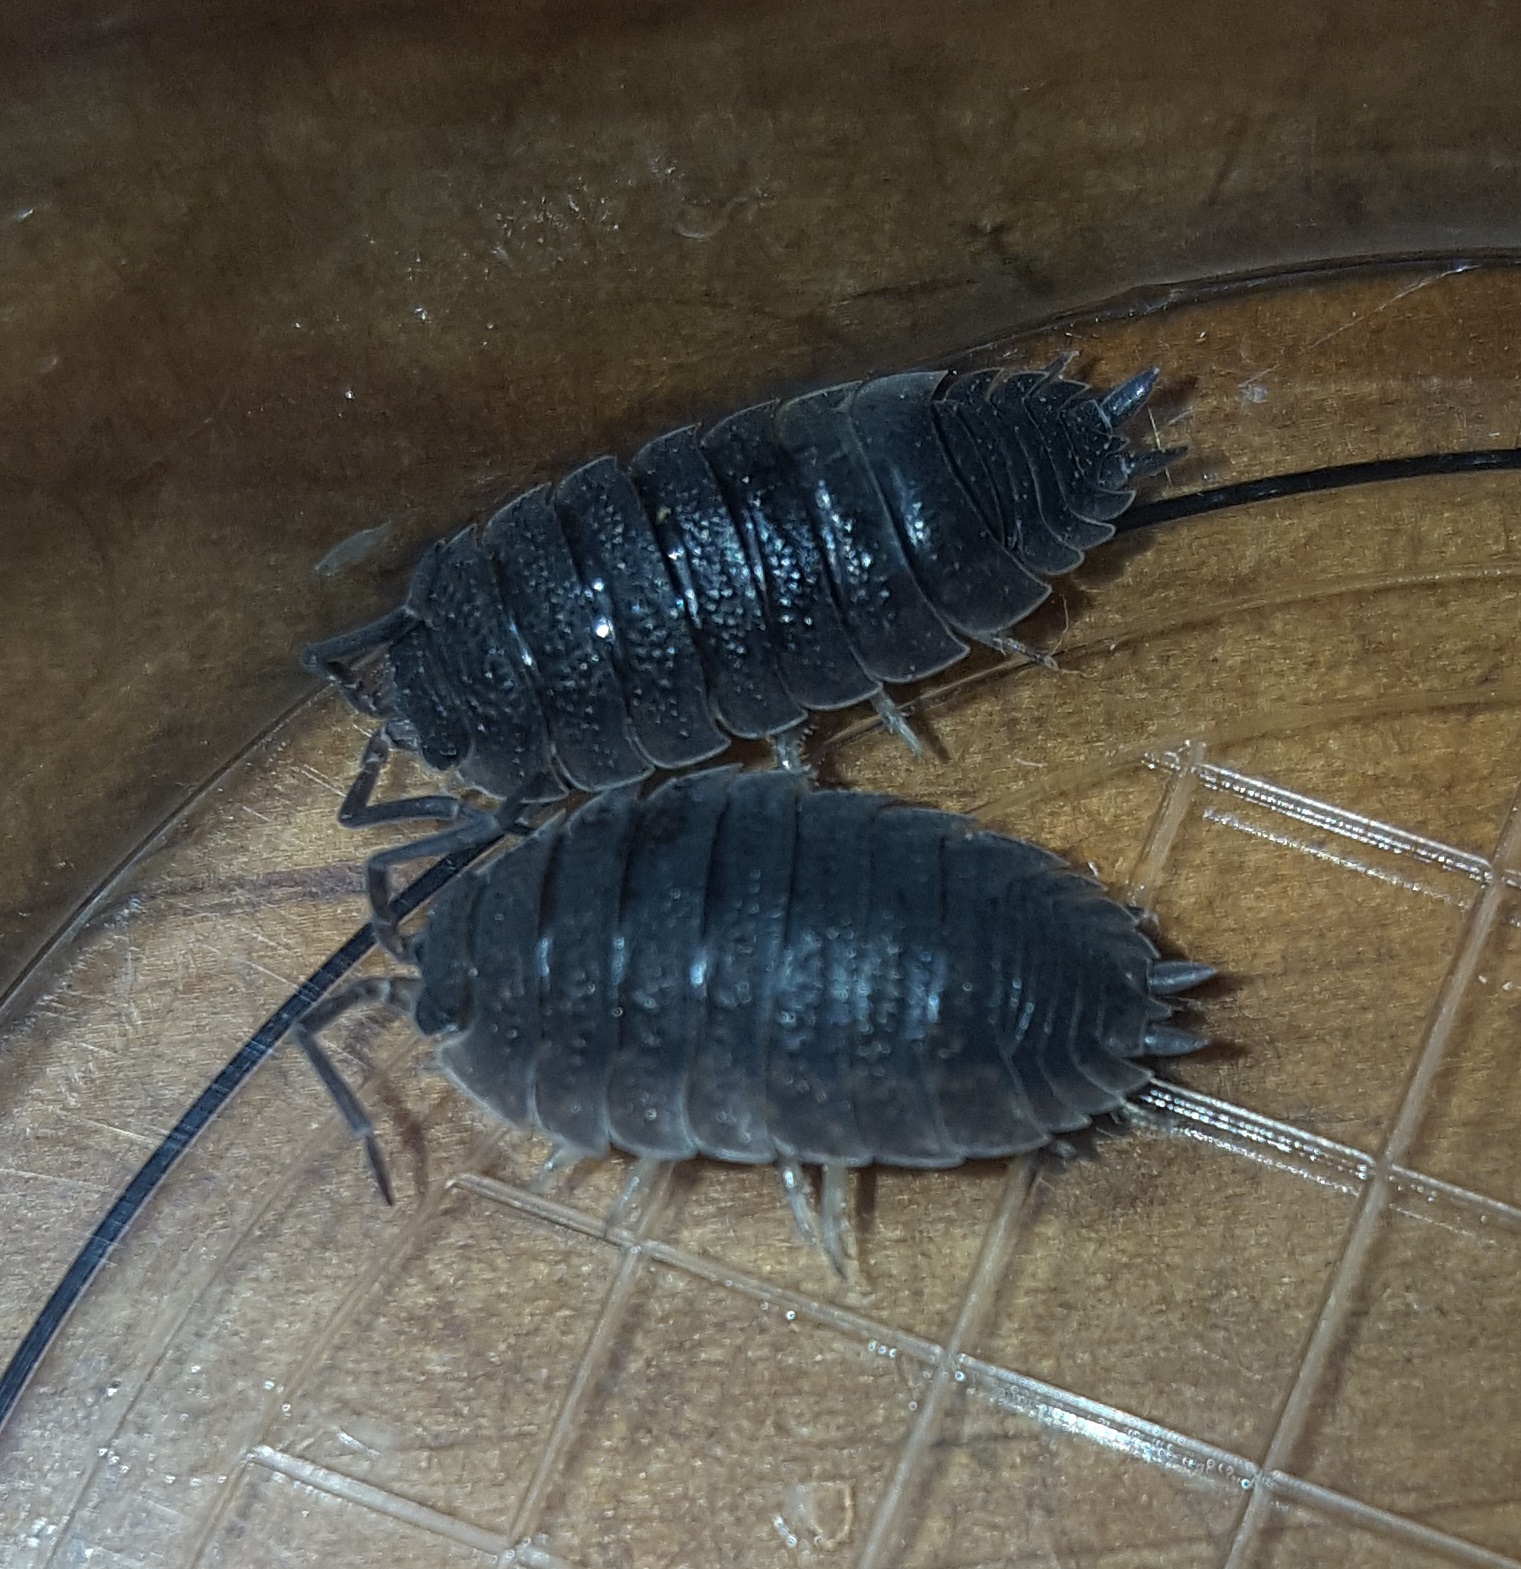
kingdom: Animalia
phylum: Arthropoda
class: Malacostraca
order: Isopoda
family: Porcellionidae
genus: Porcellio
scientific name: Porcellio scaber
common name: Common rough woodlouse
